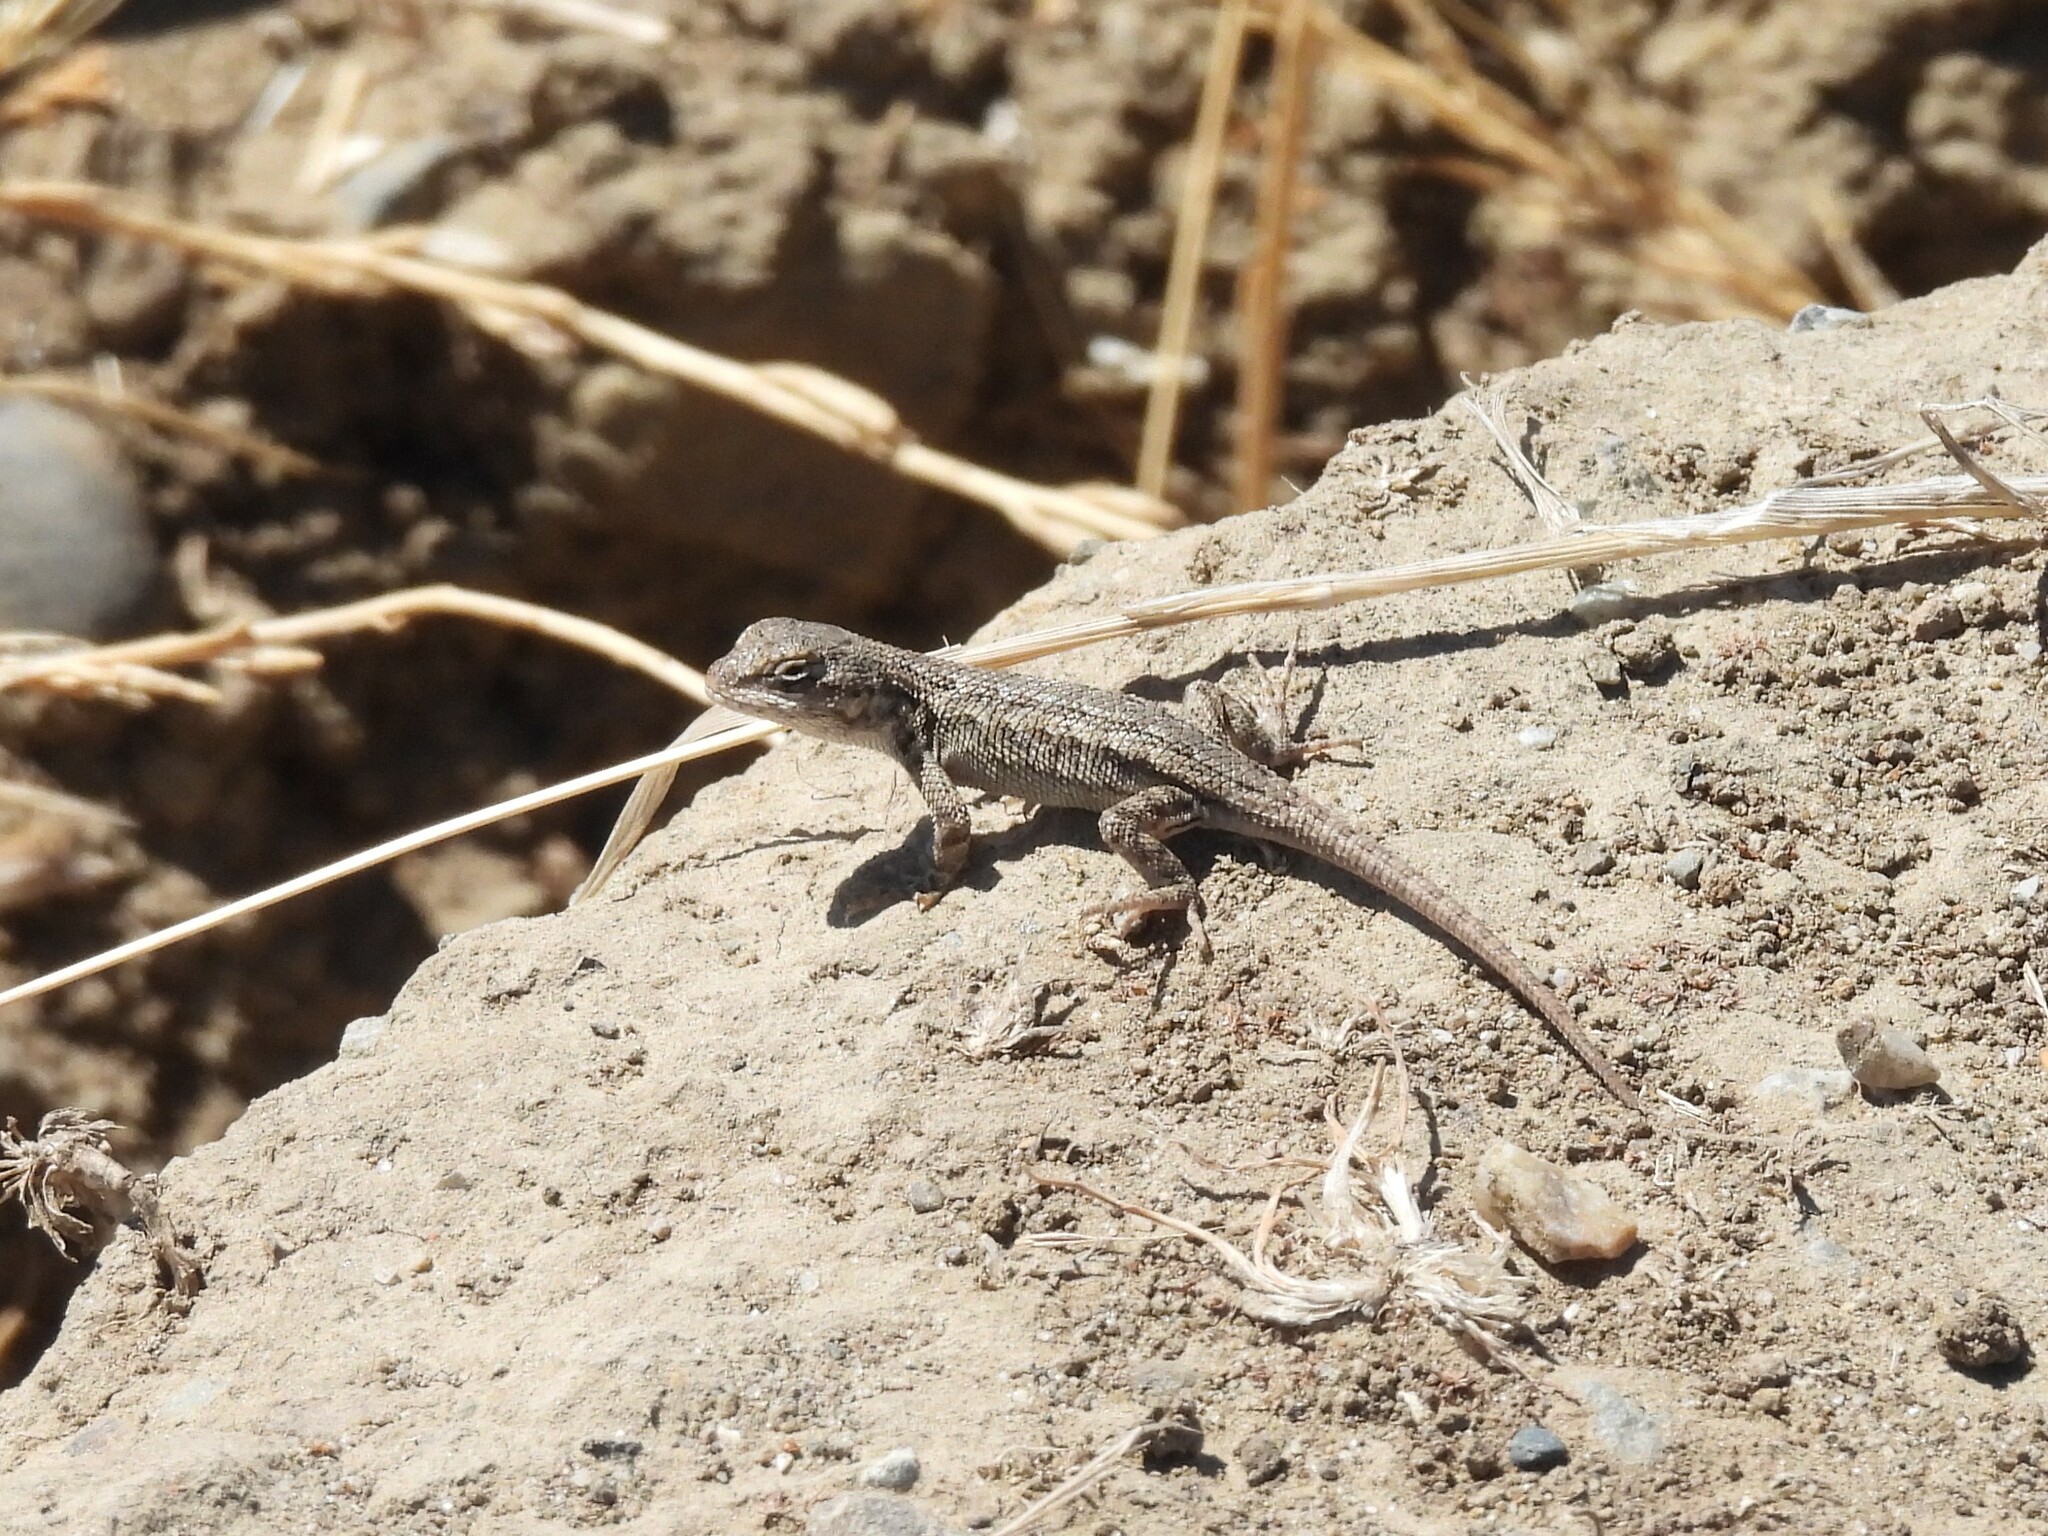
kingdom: Animalia
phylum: Chordata
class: Squamata
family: Phrynosomatidae
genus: Sceloporus
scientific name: Sceloporus occidentalis
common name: Western fence lizard
